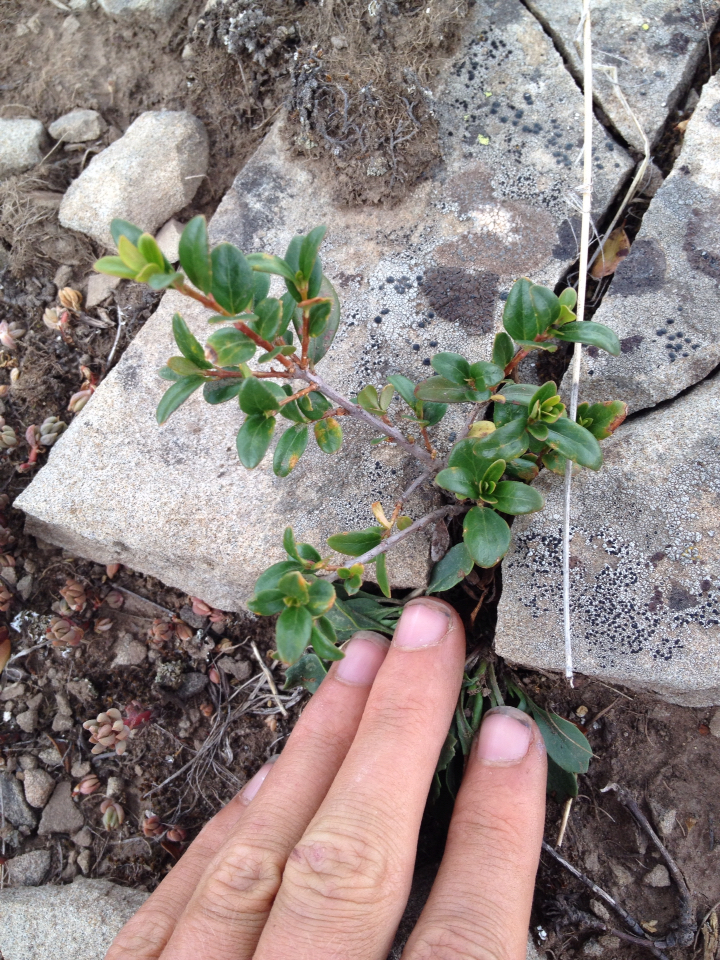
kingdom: Plantae
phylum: Tracheophyta
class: Magnoliopsida
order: Celastrales
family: Celastraceae
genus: Paxistima
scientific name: Paxistima myrsinites
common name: Mountain-lover
